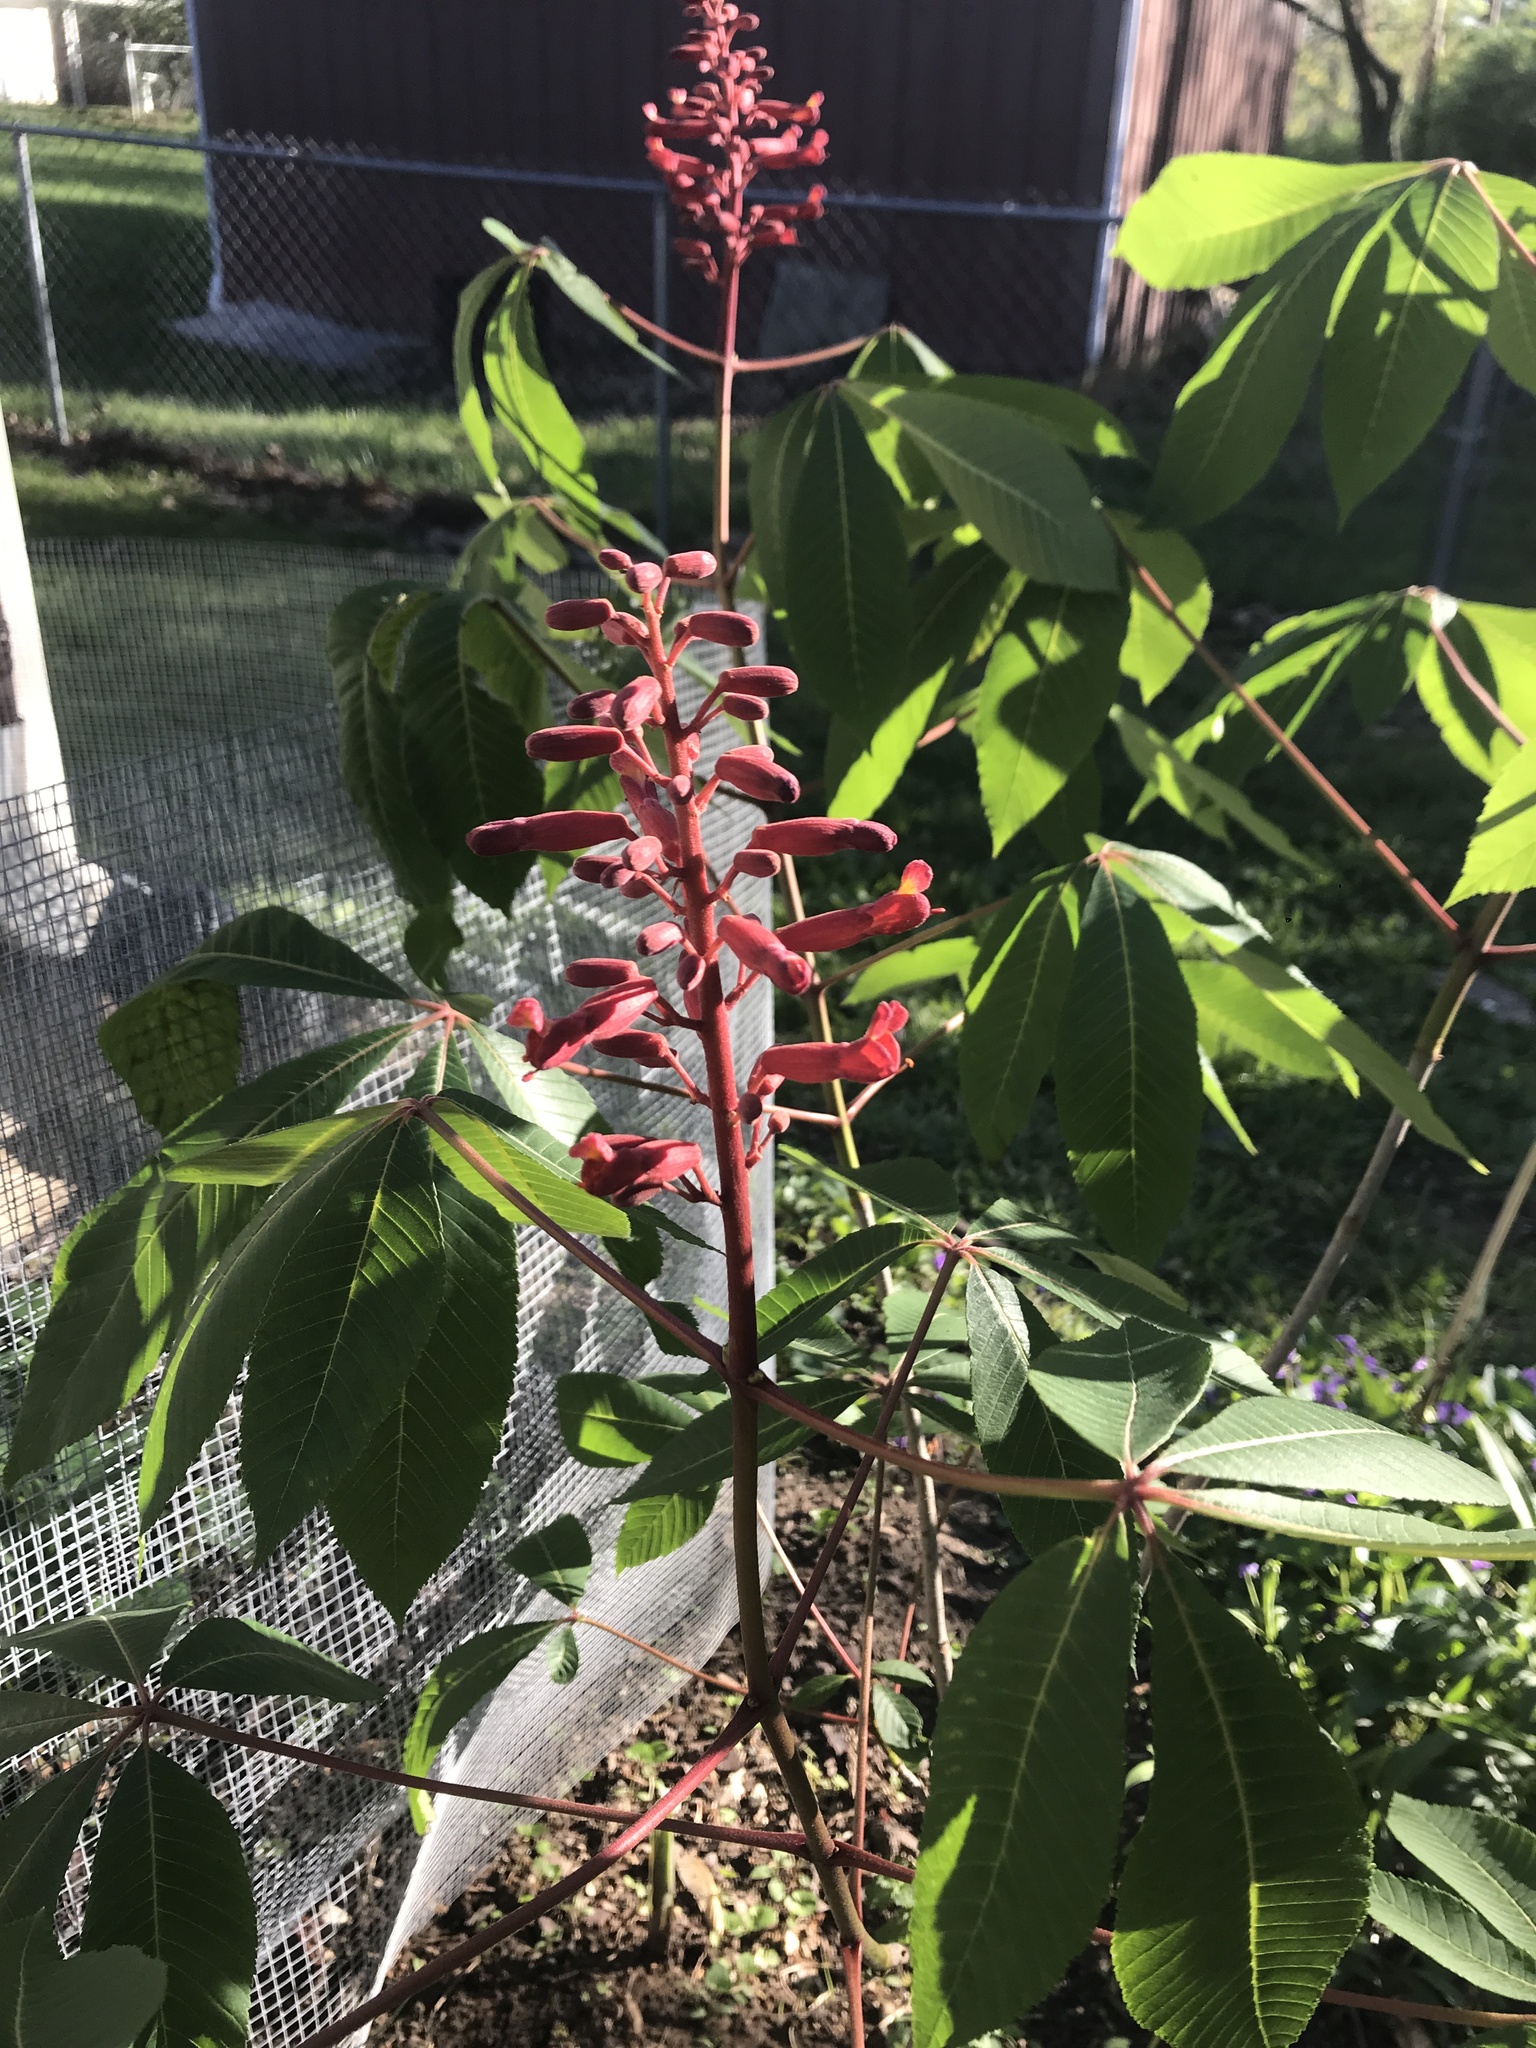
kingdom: Plantae
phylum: Tracheophyta
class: Magnoliopsida
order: Sapindales
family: Sapindaceae
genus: Aesculus
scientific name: Aesculus pavia
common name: Red buckeye
